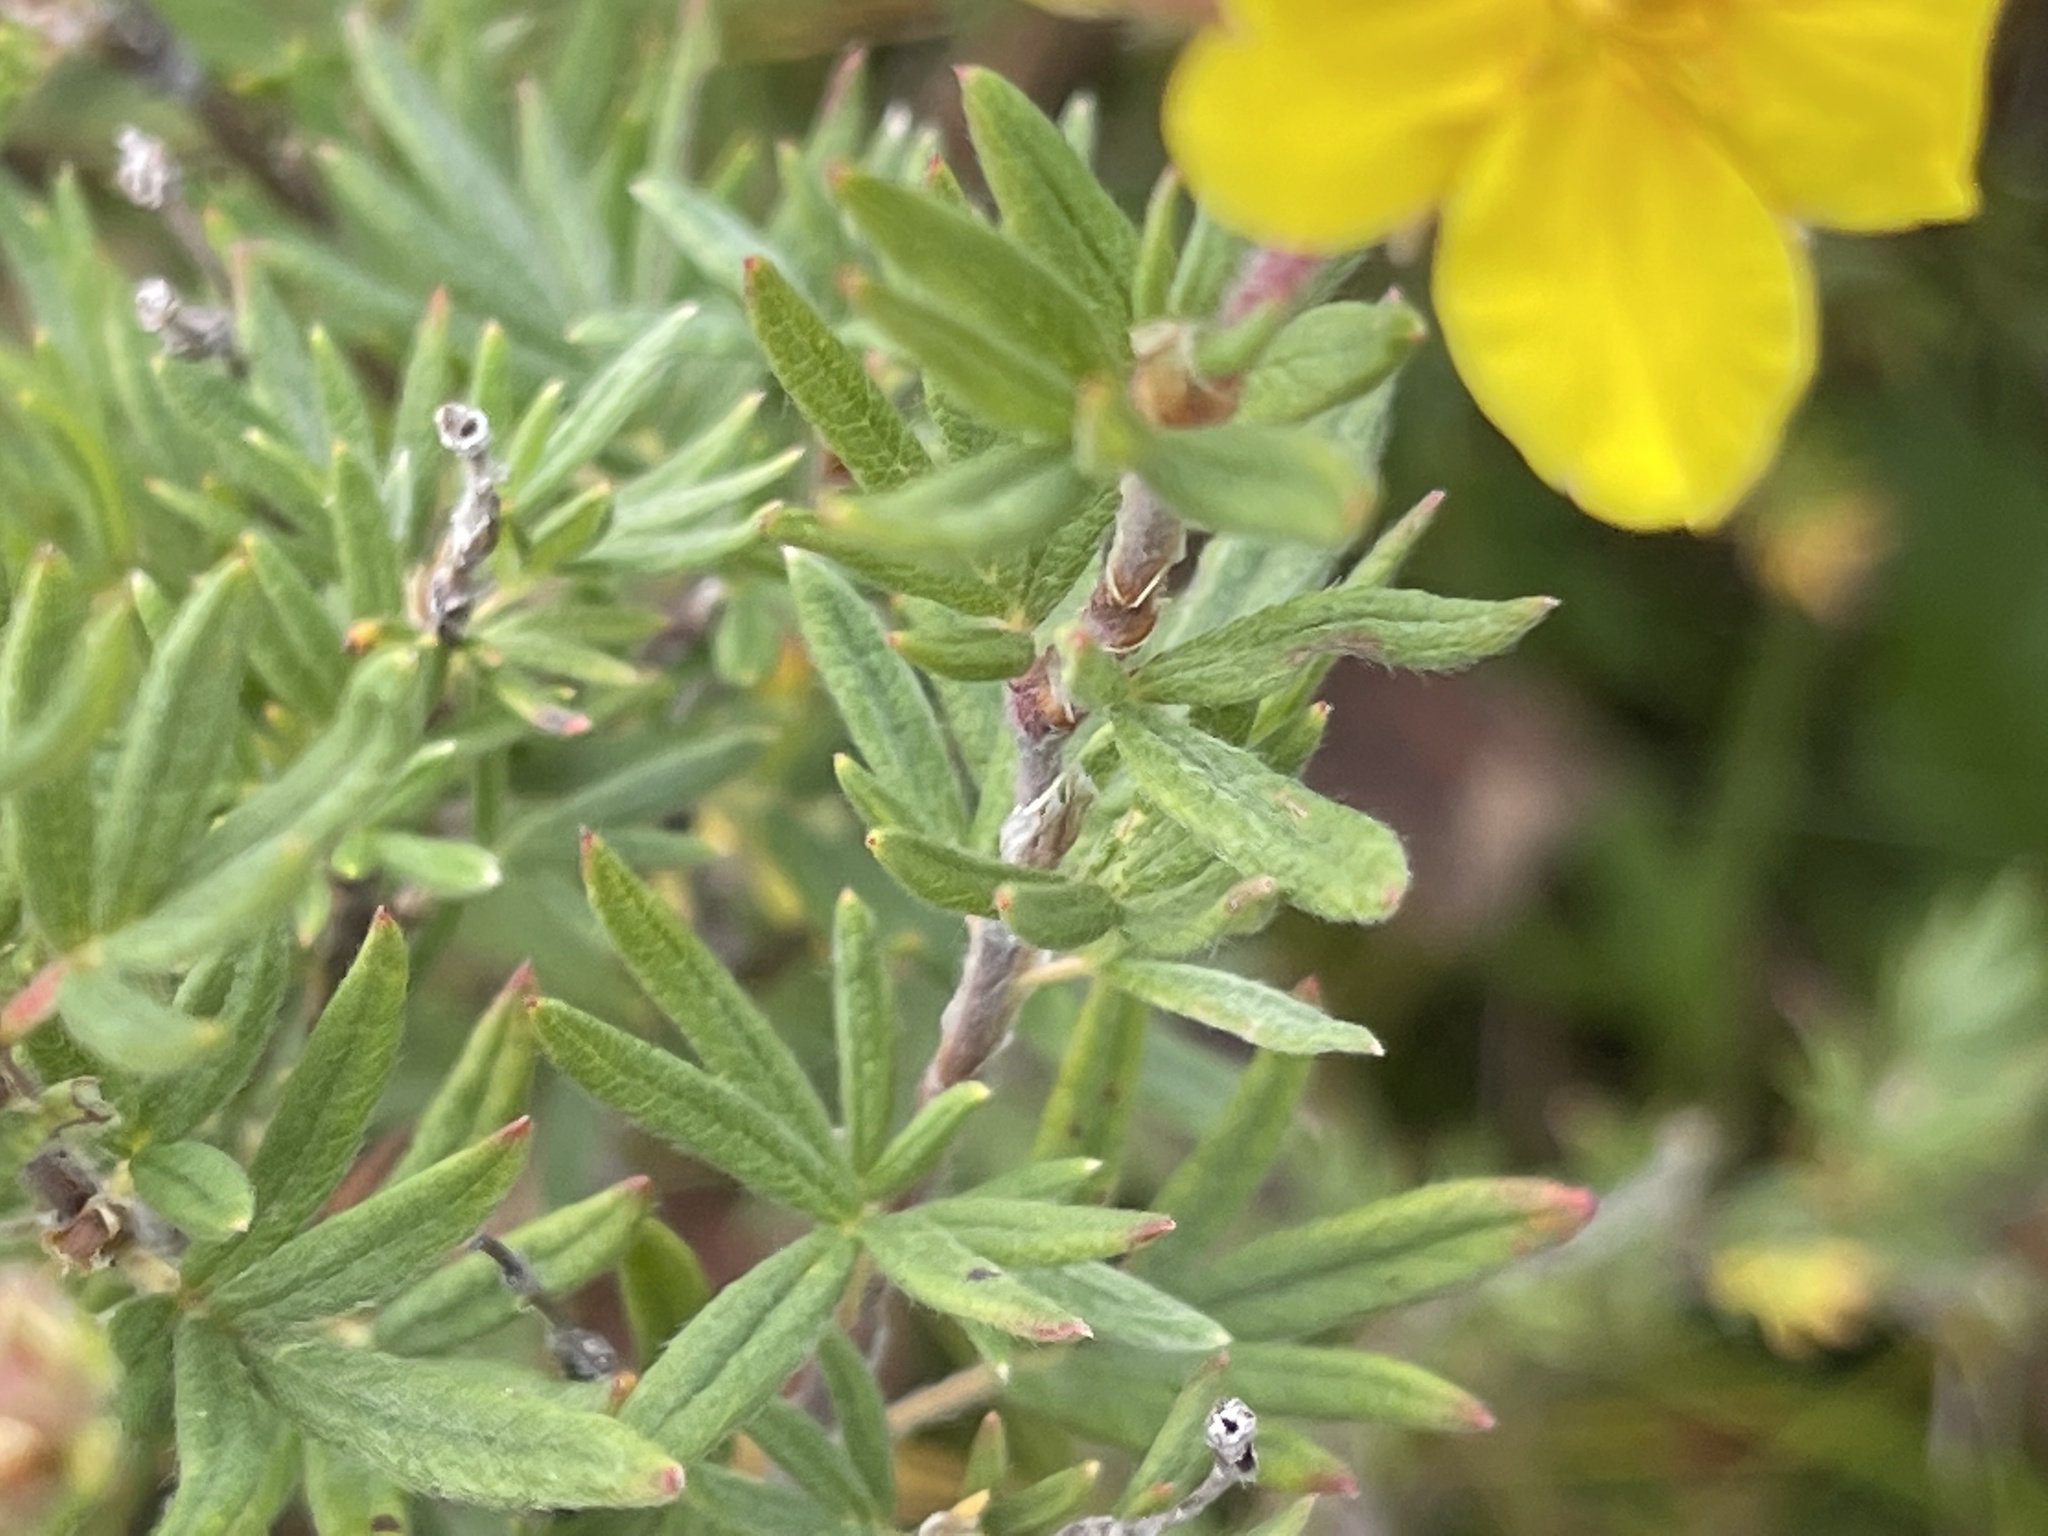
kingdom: Plantae
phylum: Tracheophyta
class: Magnoliopsida
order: Rosales
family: Rosaceae
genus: Dasiphora
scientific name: Dasiphora fruticosa
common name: Shrubby cinquefoil
